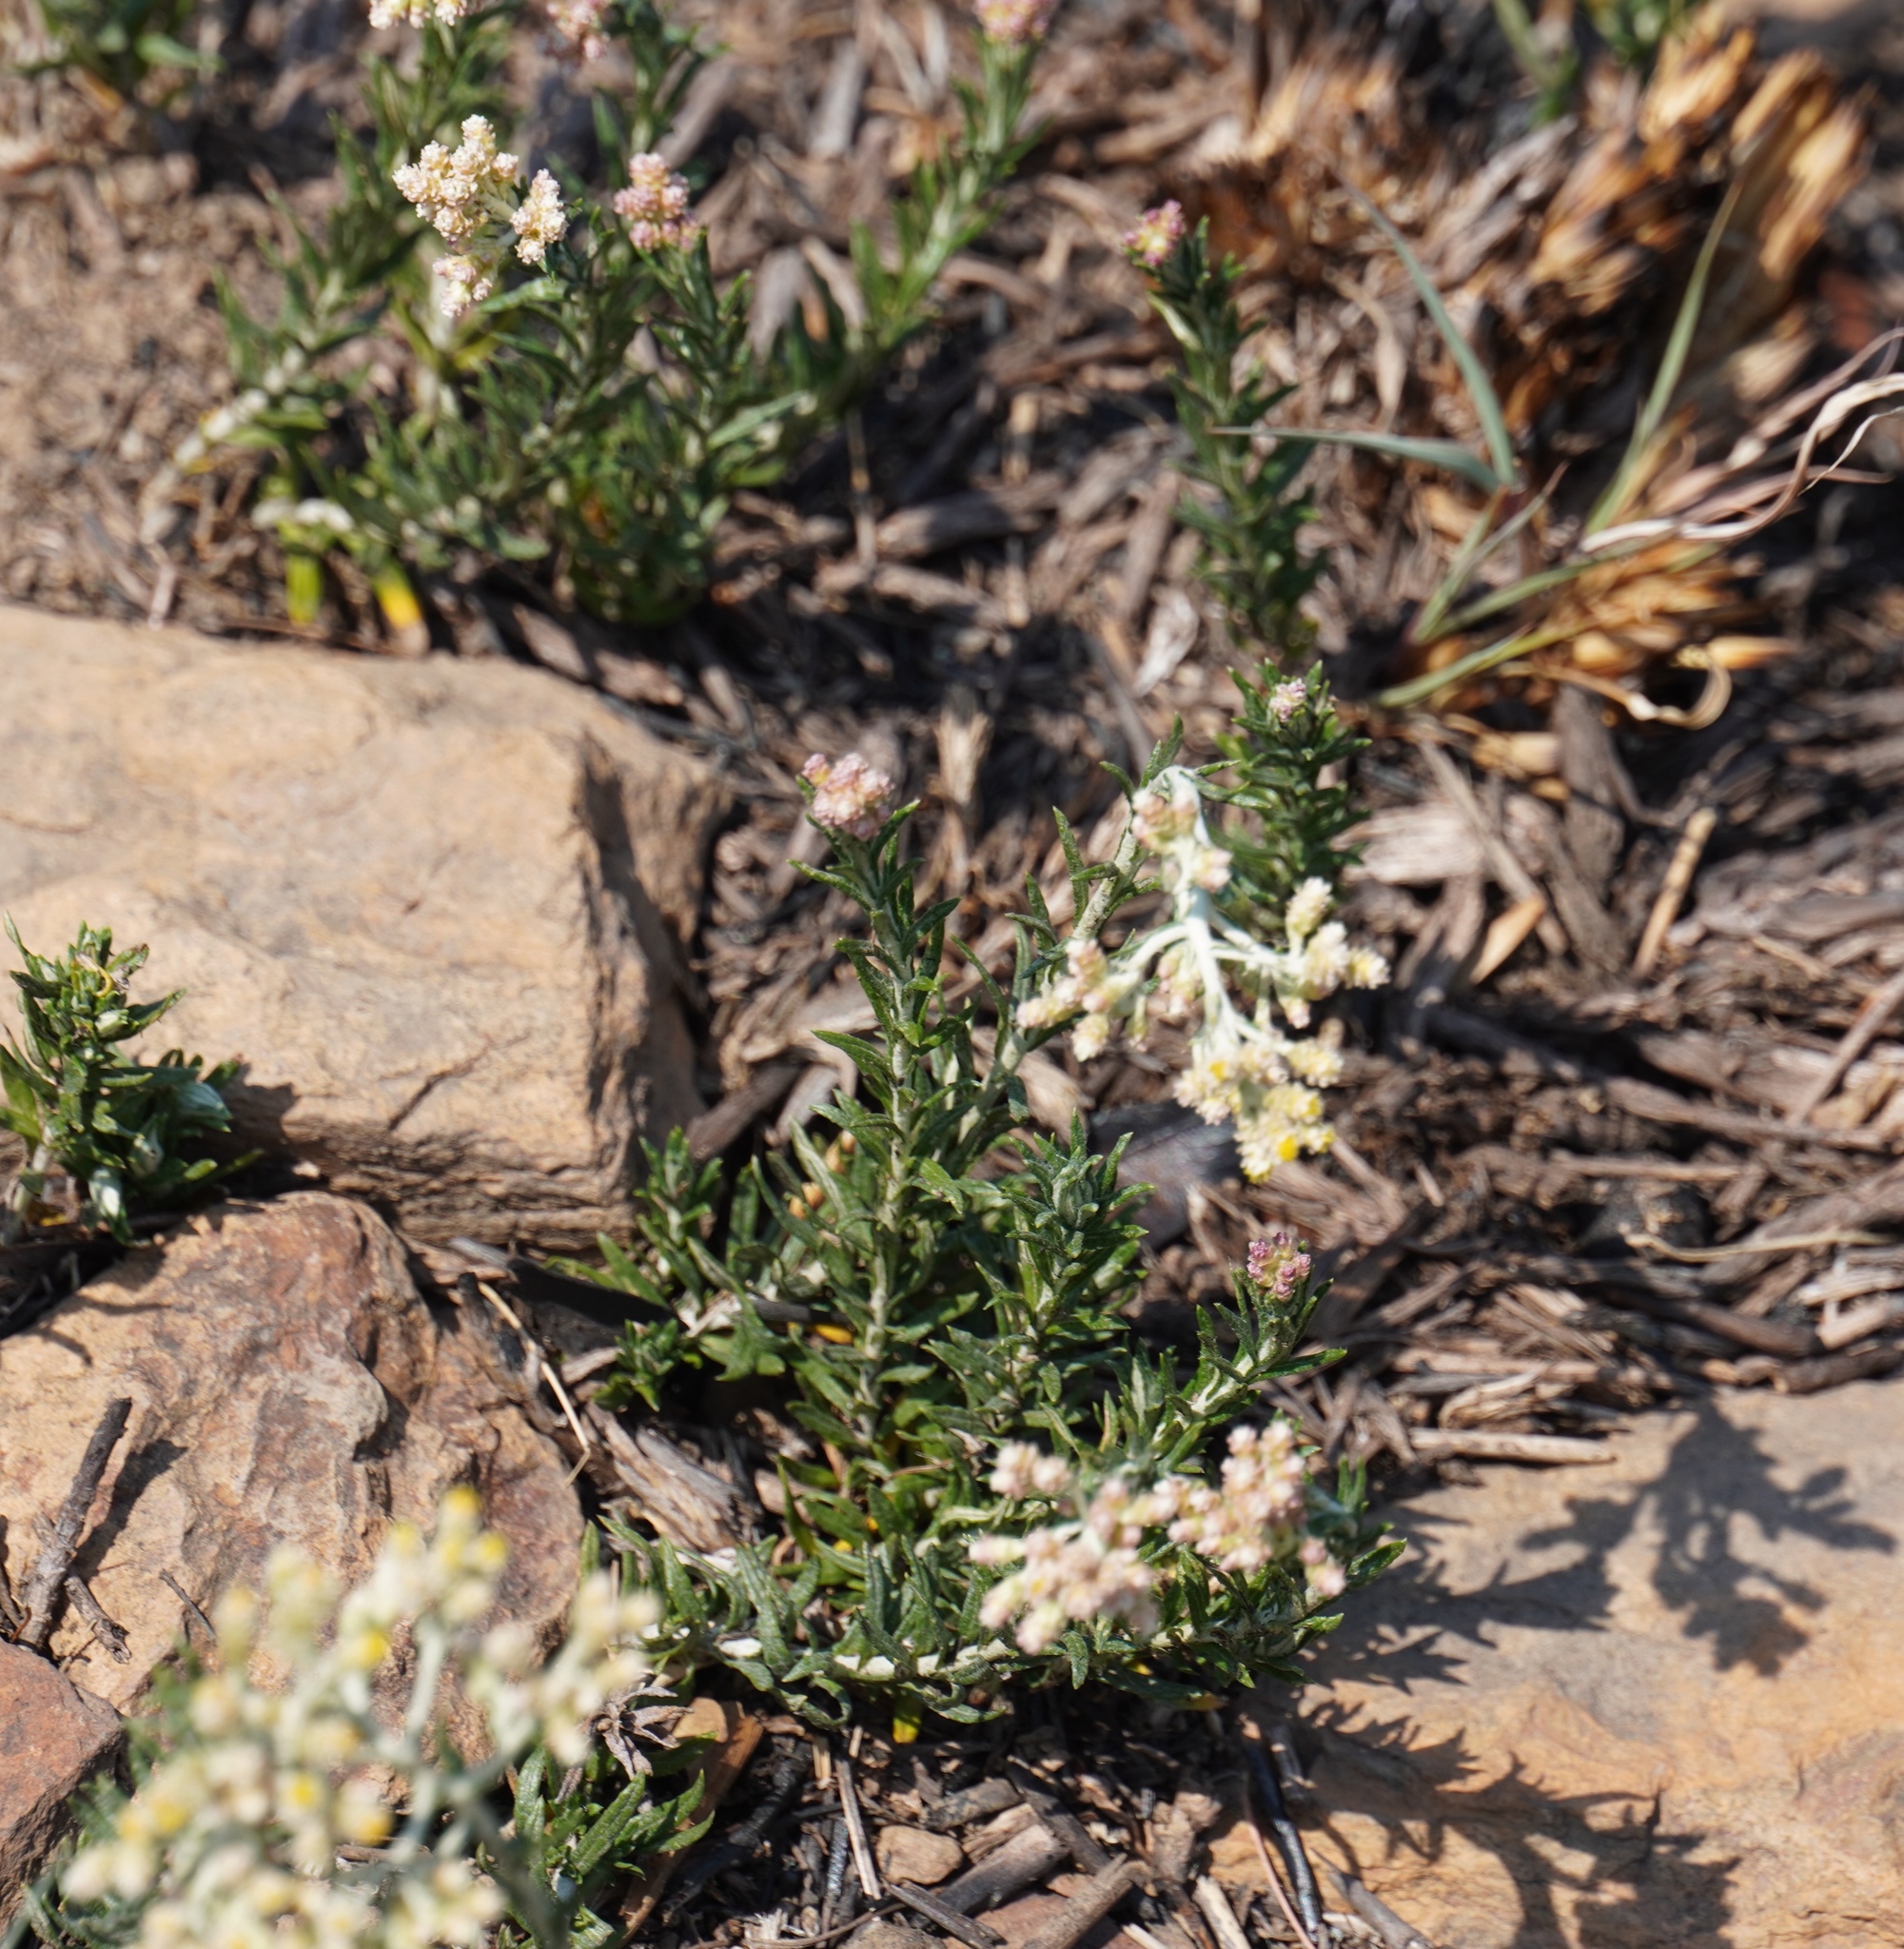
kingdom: Plantae
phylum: Tracheophyta
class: Magnoliopsida
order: Asterales
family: Asteraceae
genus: Helichrysum
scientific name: Helichrysum rugulosum
